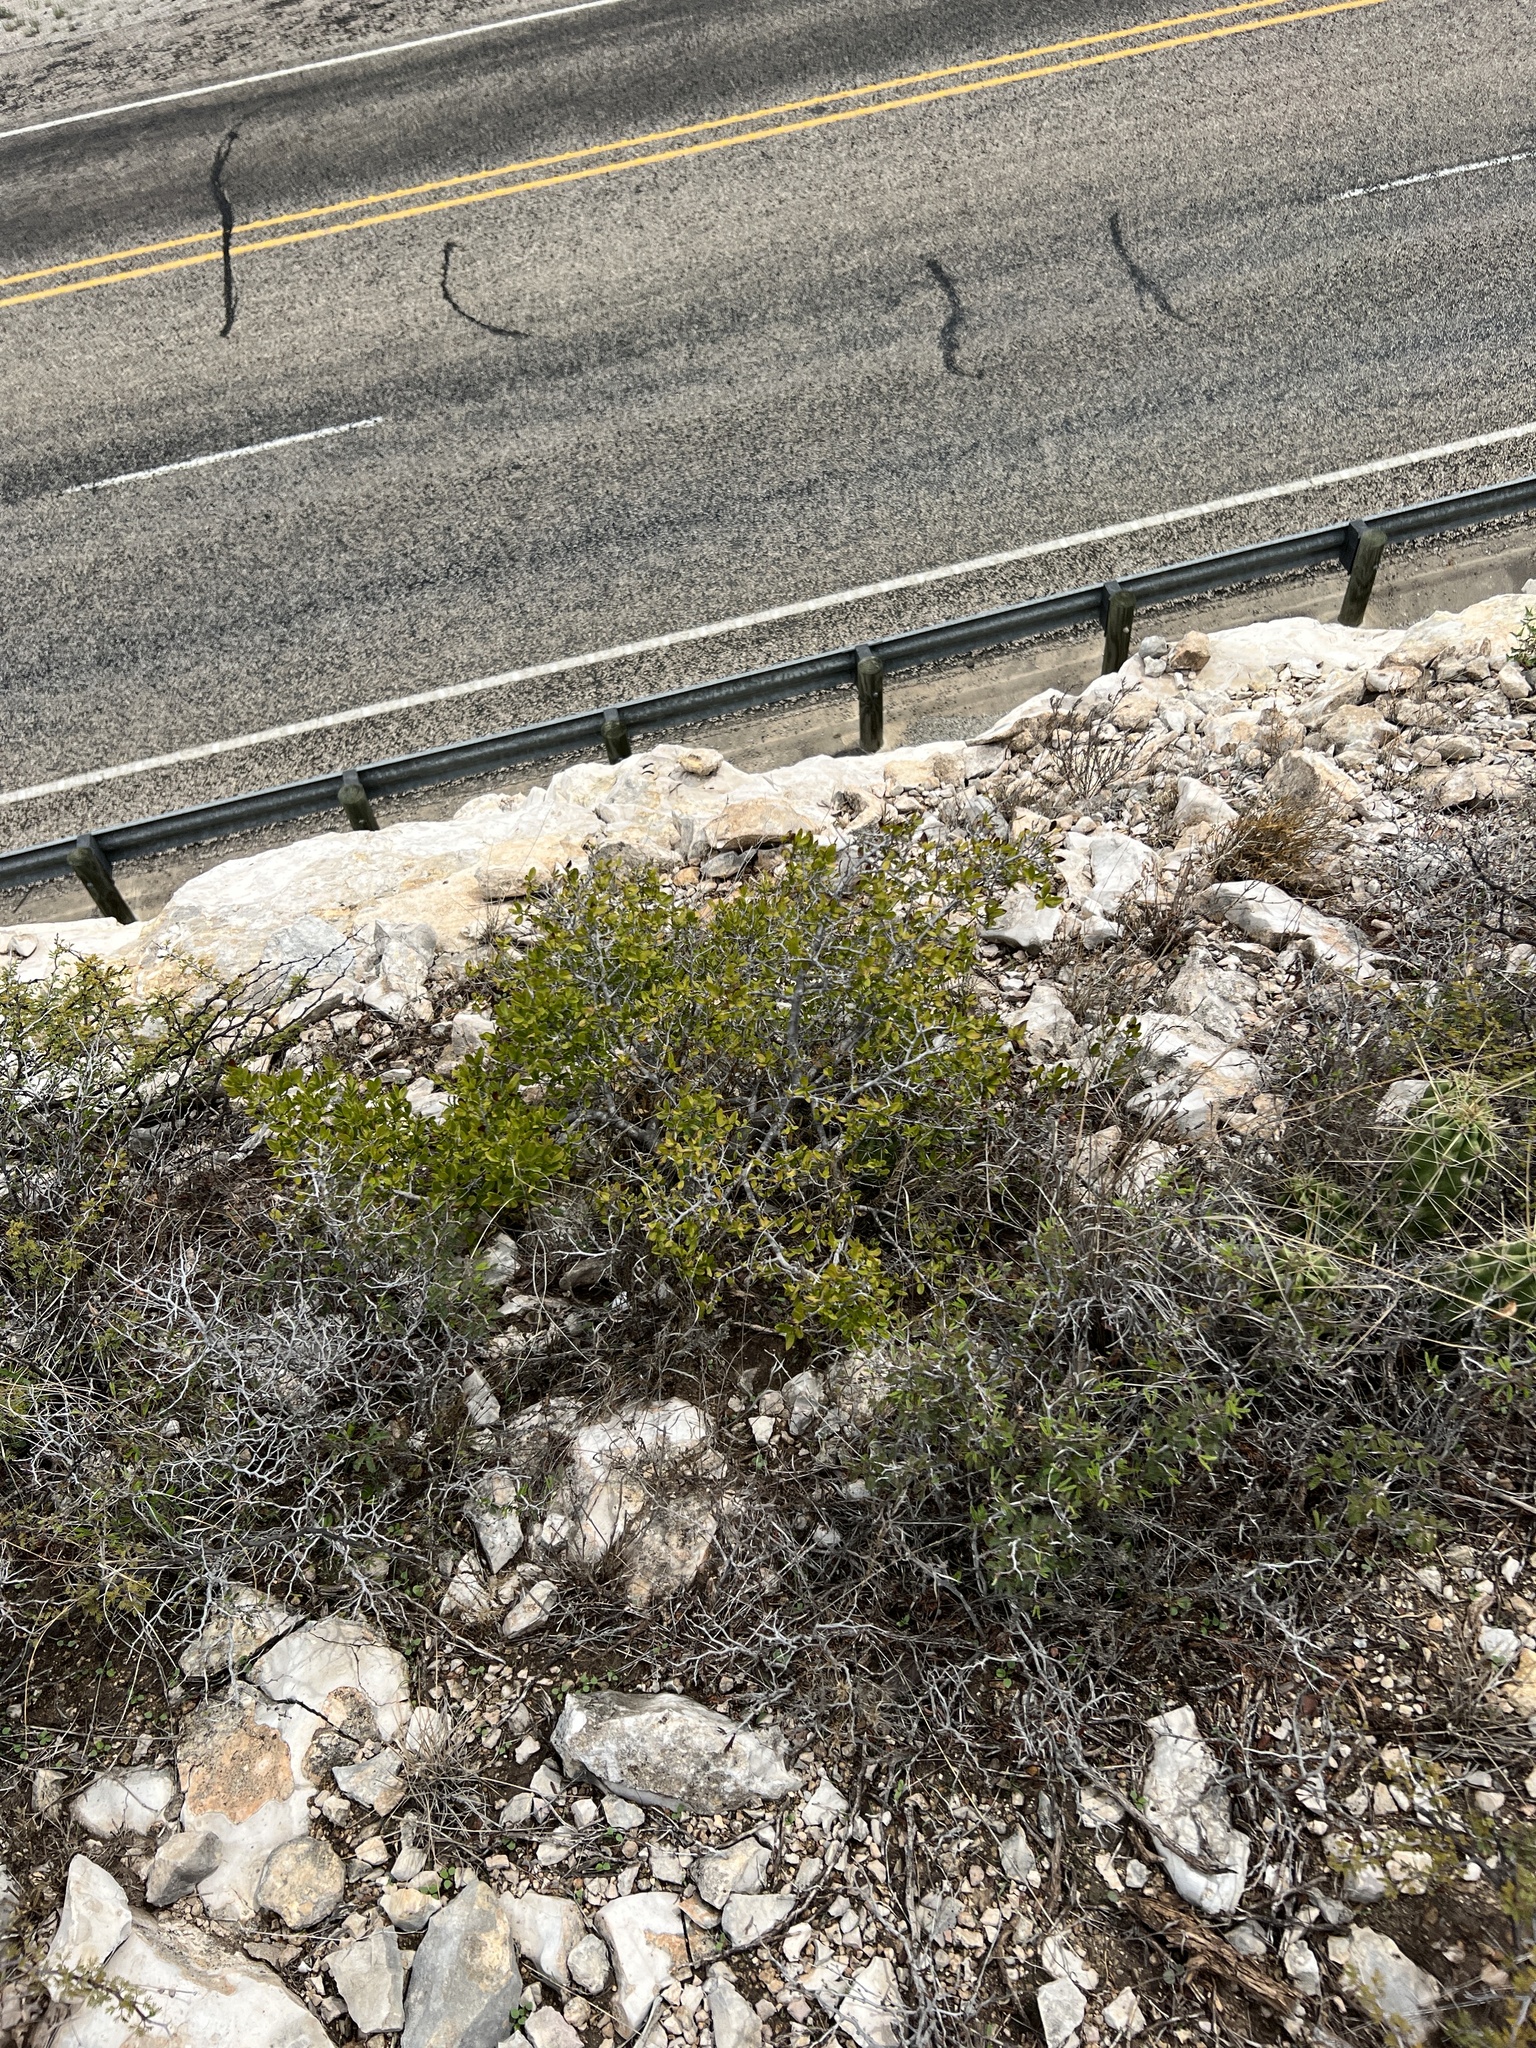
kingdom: Plantae
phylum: Tracheophyta
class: Magnoliopsida
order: Ericales
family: Ebenaceae
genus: Diospyros
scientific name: Diospyros texana
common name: Texas persimmon
